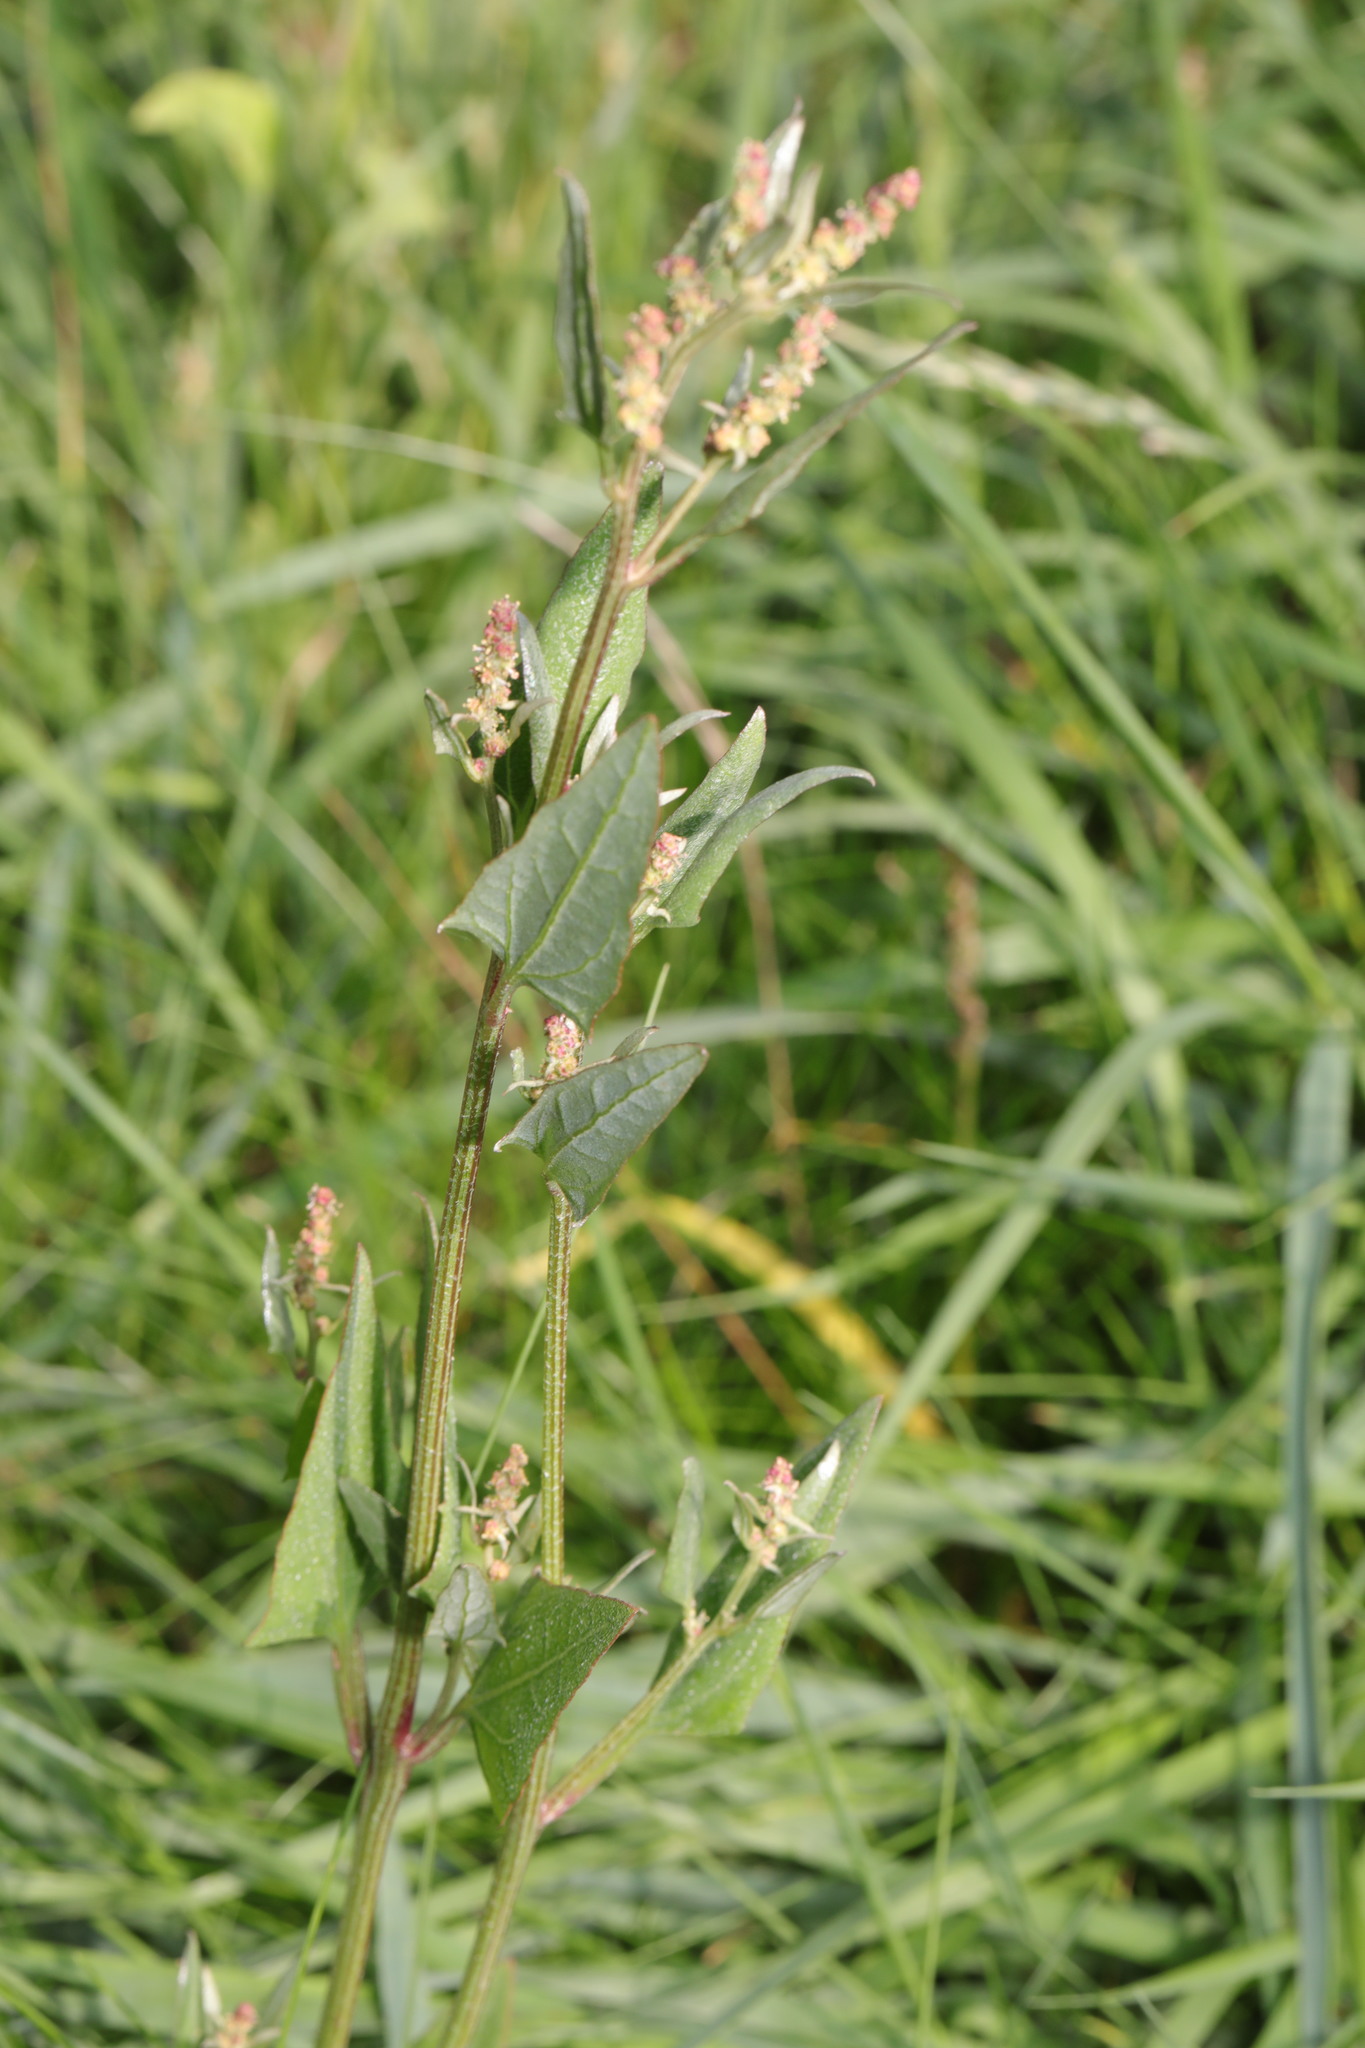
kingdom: Plantae
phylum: Tracheophyta
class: Magnoliopsida
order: Caryophyllales
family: Amaranthaceae
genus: Atriplex
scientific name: Atriplex prostrata
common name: Spear-leaved orache
